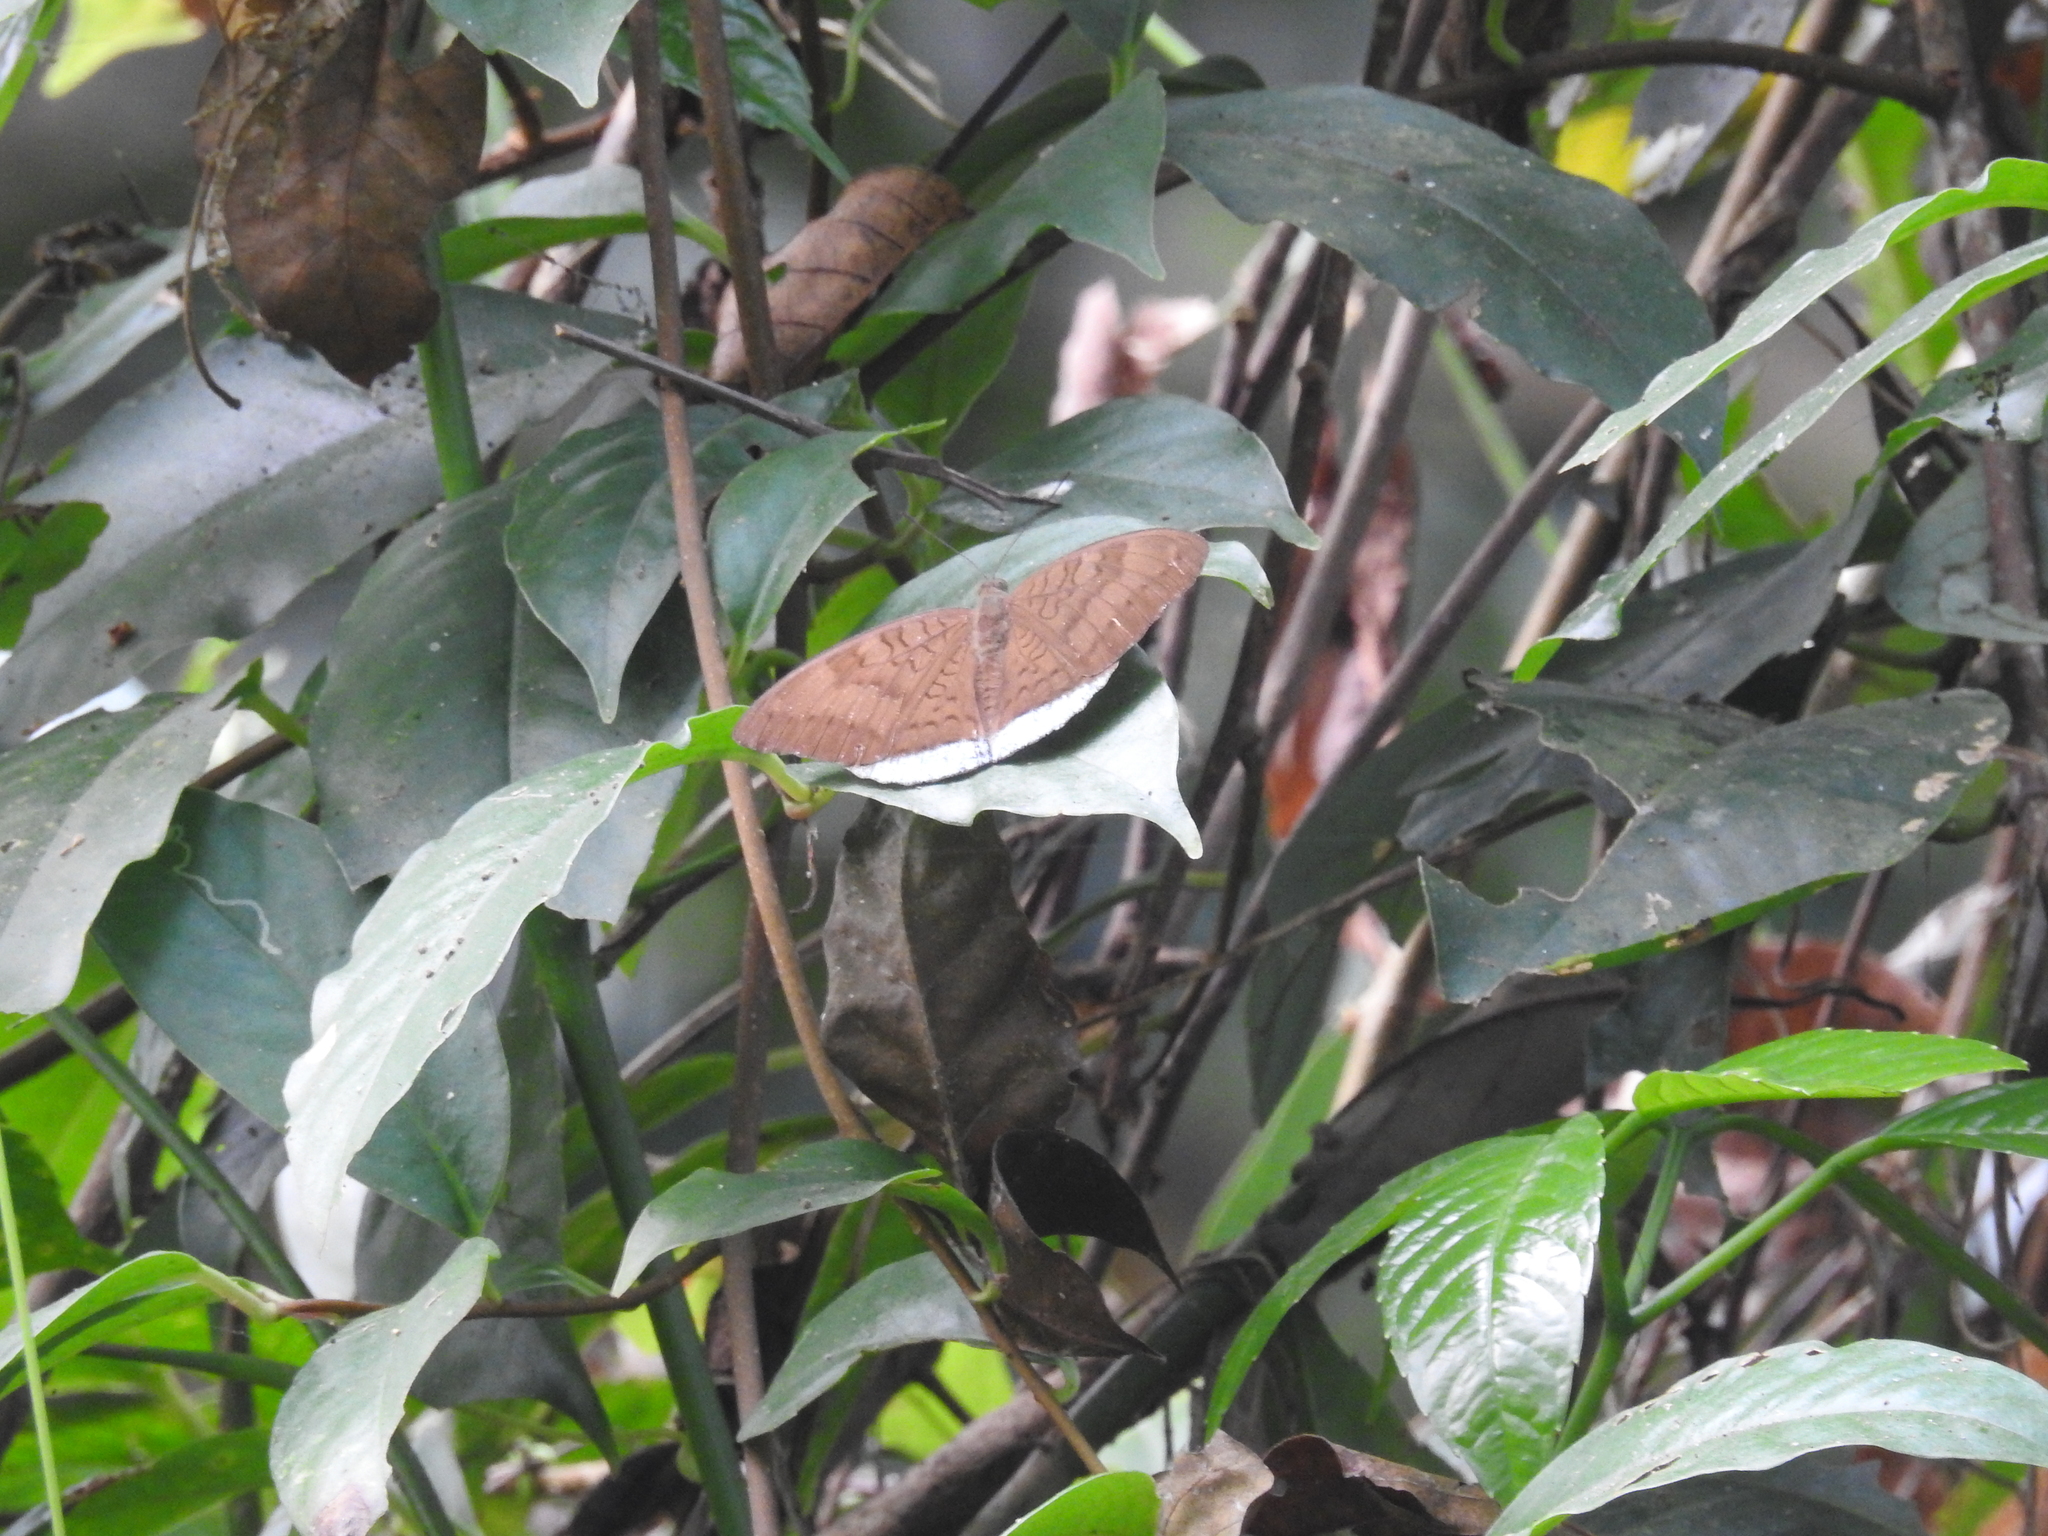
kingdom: Animalia
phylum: Arthropoda
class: Insecta
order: Lepidoptera
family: Nymphalidae
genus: Tanaecia
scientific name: Tanaecia julii
